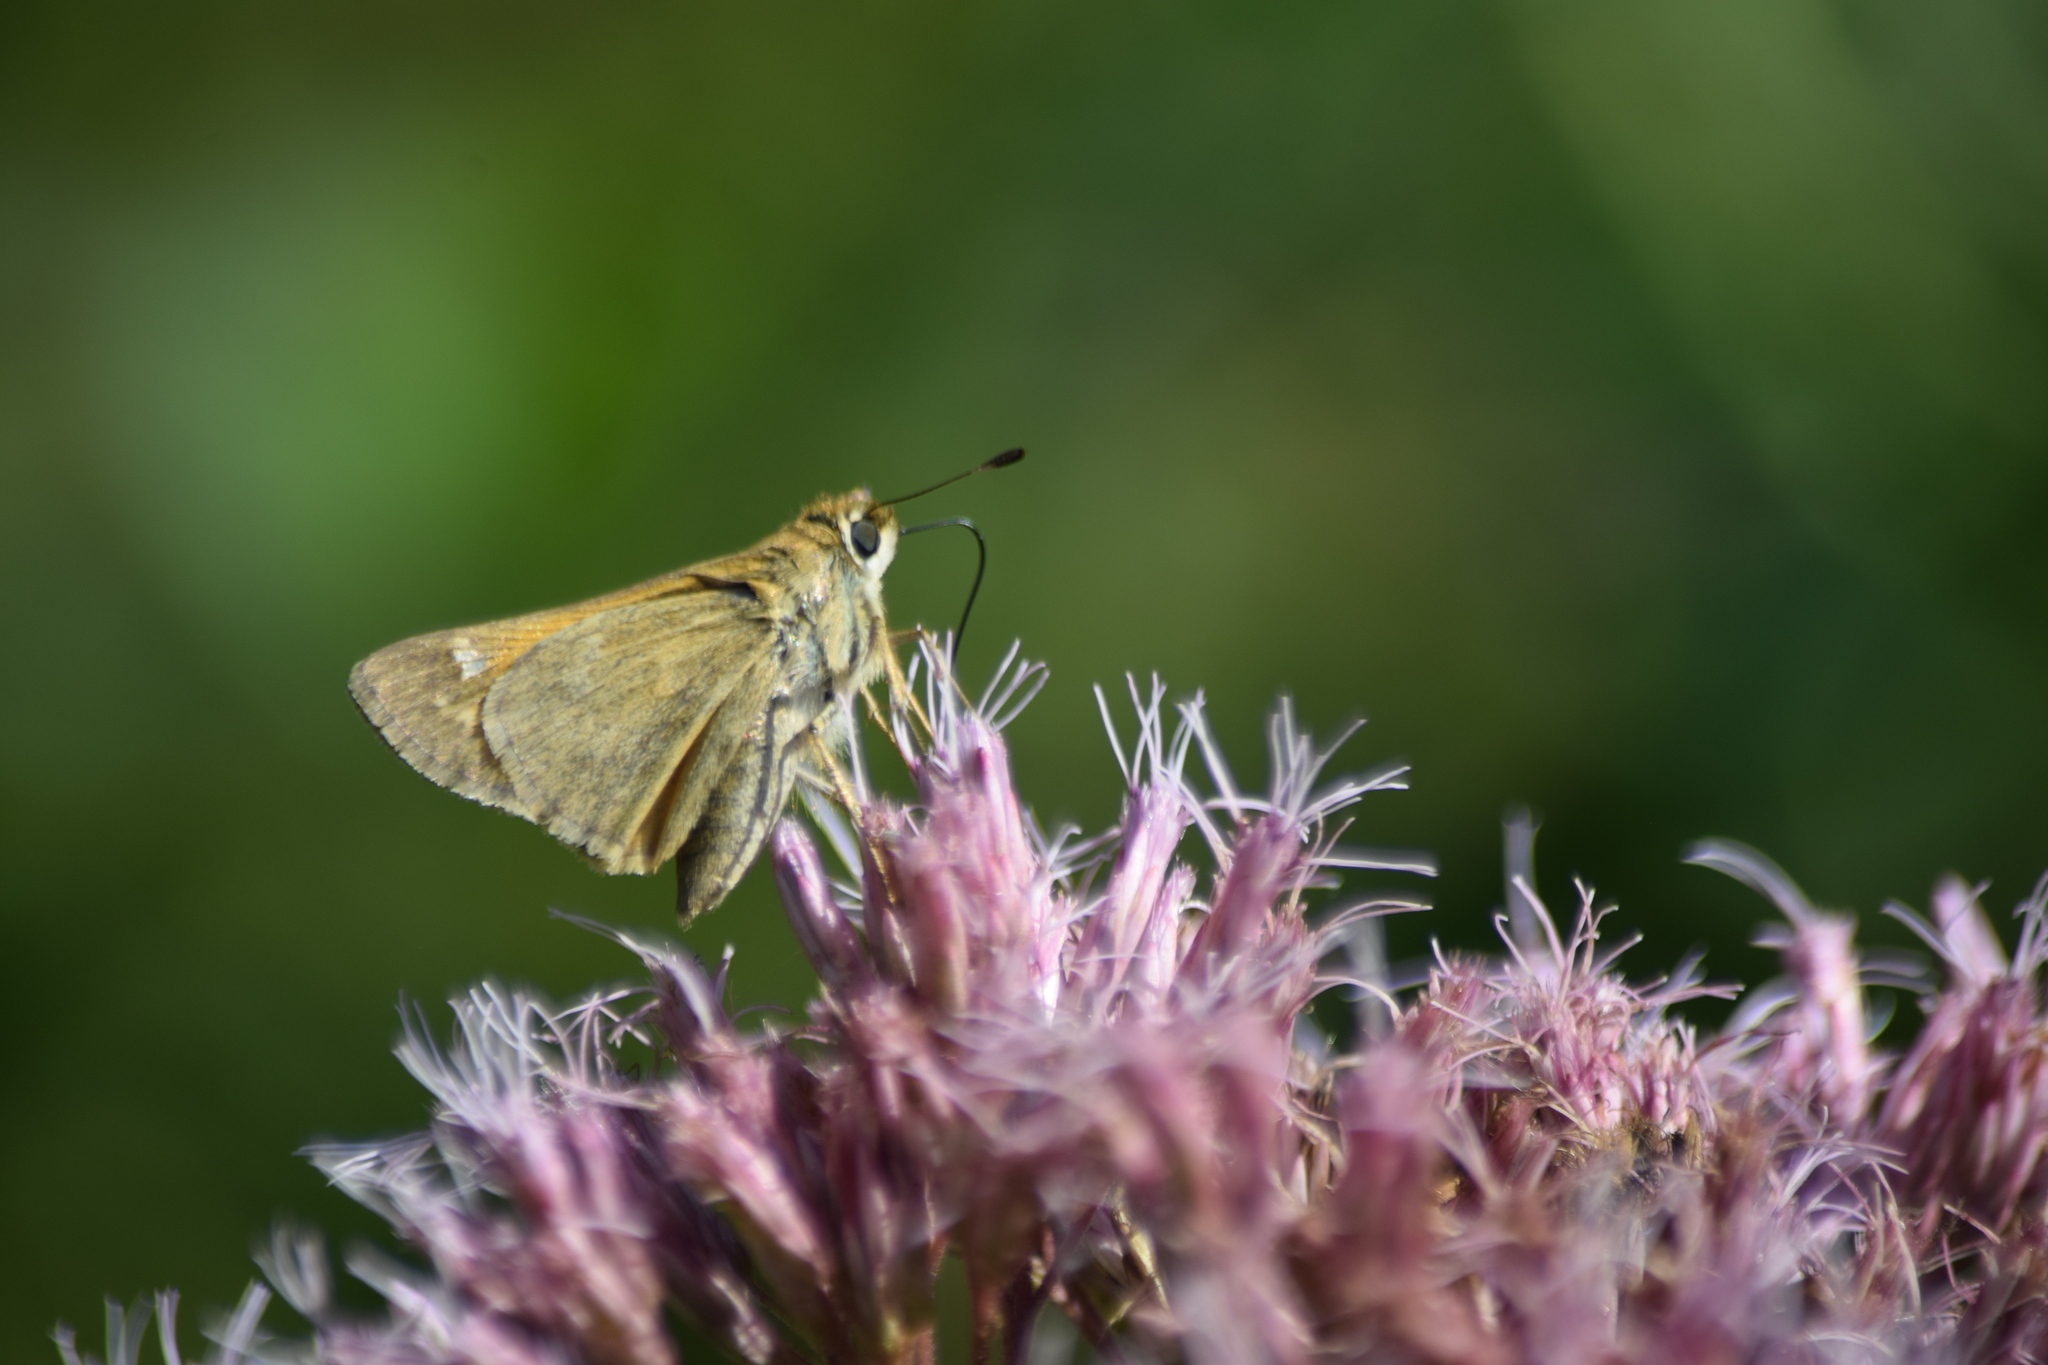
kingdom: Animalia
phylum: Arthropoda
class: Insecta
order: Lepidoptera
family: Hesperiidae
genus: Atalopedes
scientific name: Atalopedes
